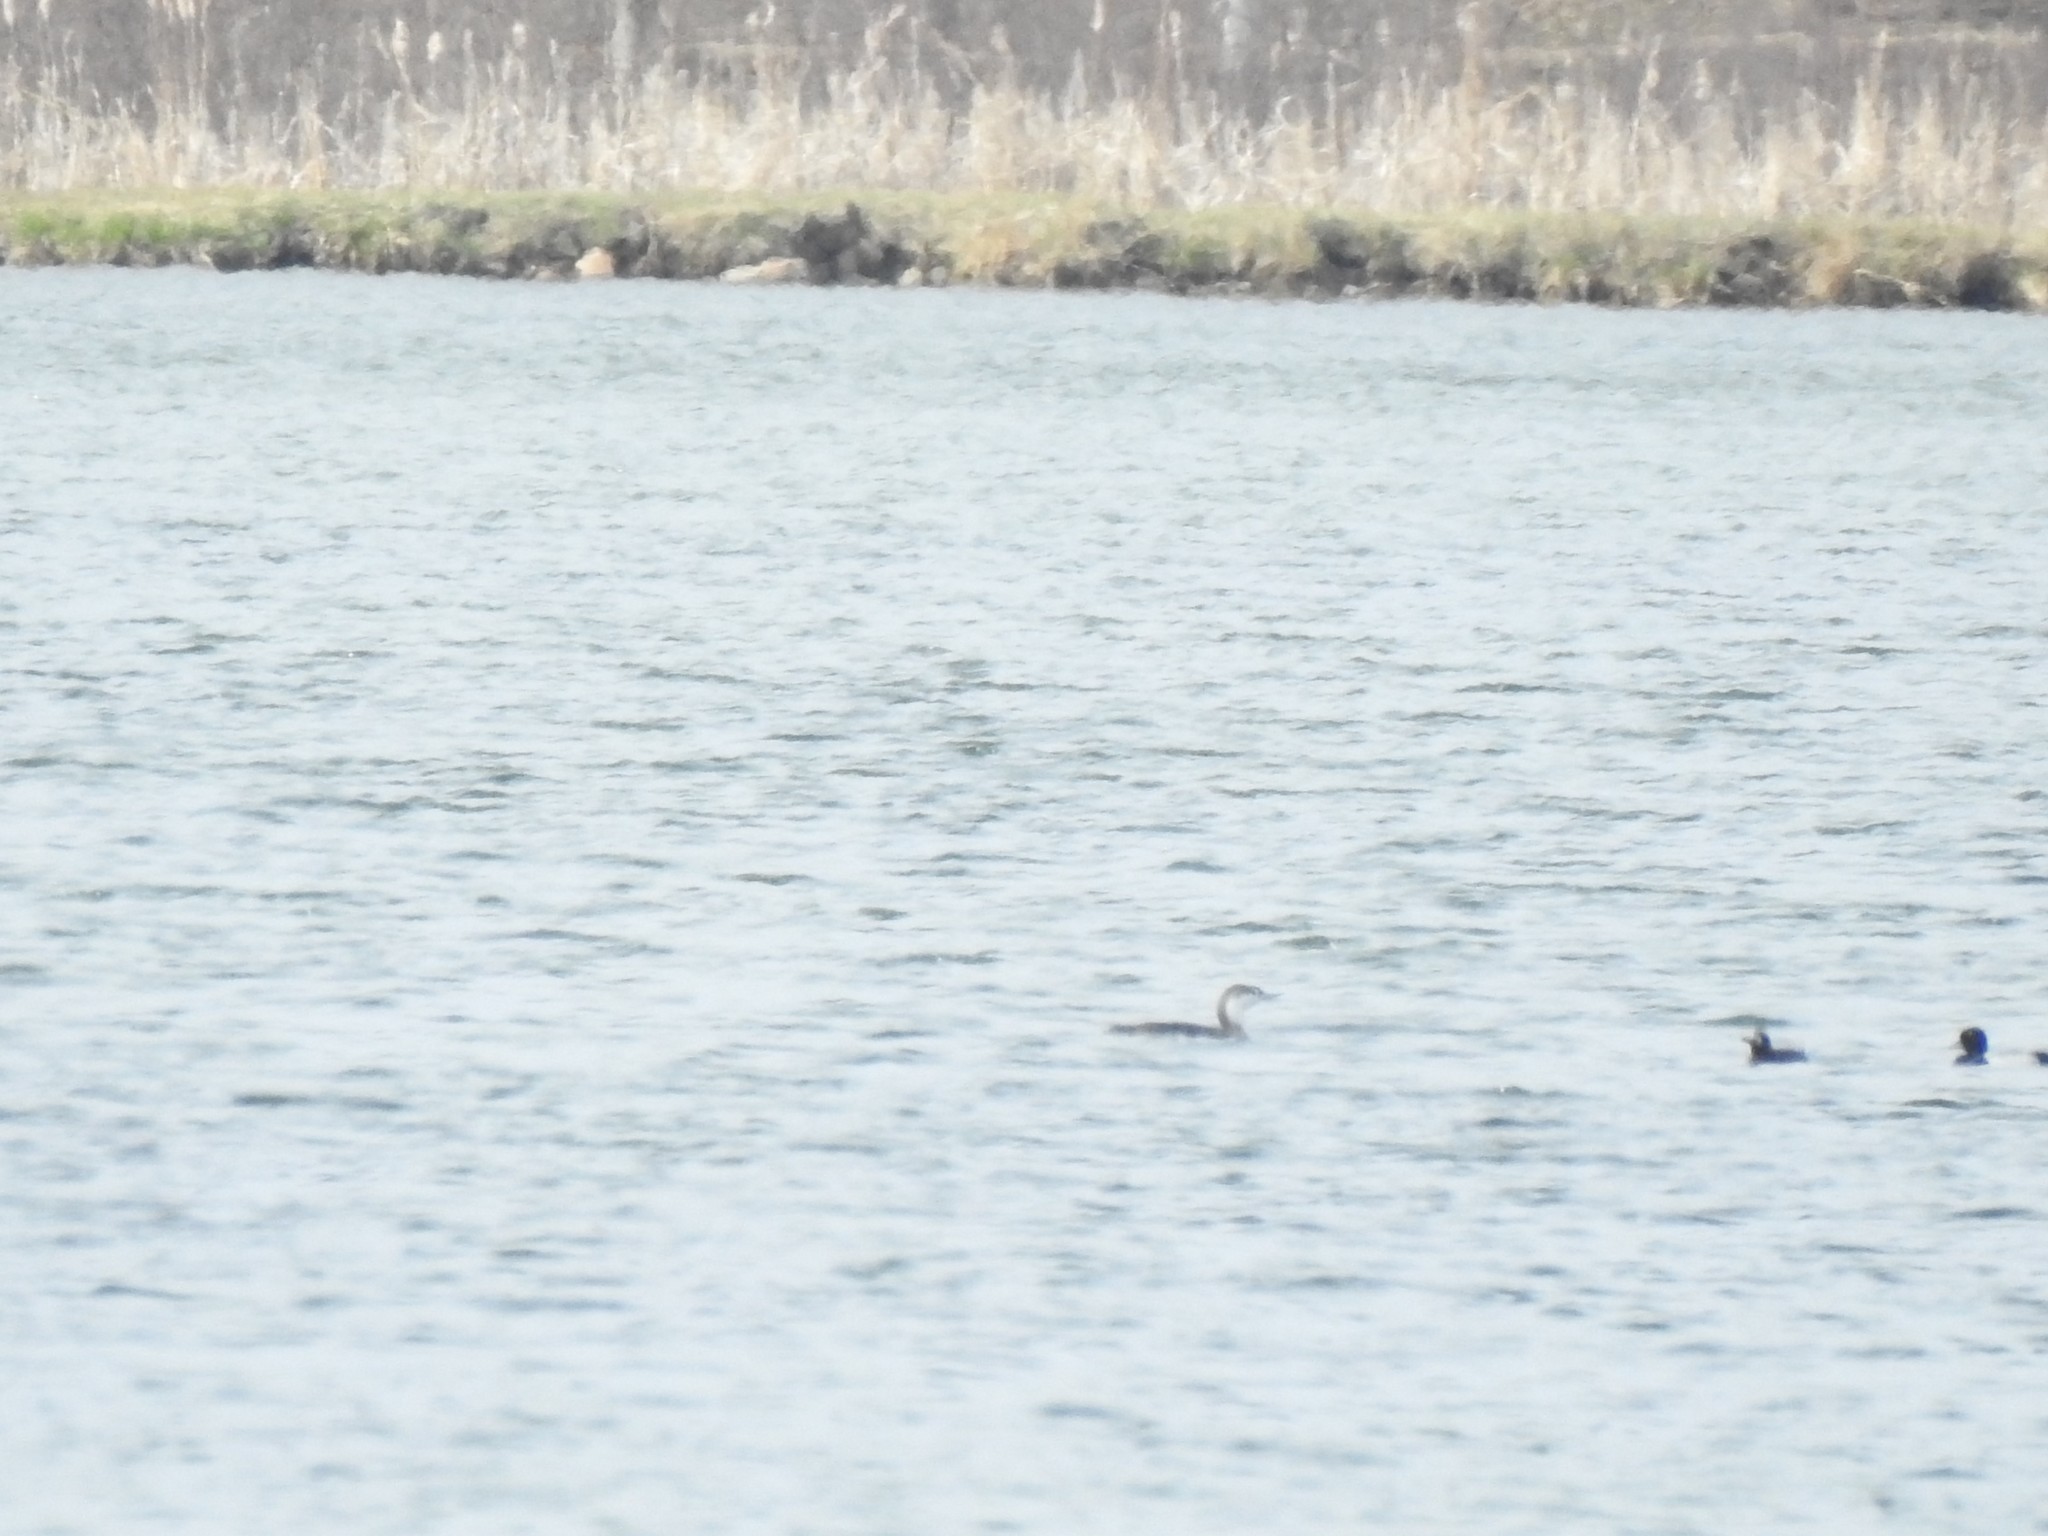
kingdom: Animalia
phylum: Chordata
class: Aves
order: Gaviiformes
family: Gaviidae
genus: Gavia
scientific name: Gavia stellata
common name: Red-throated loon
